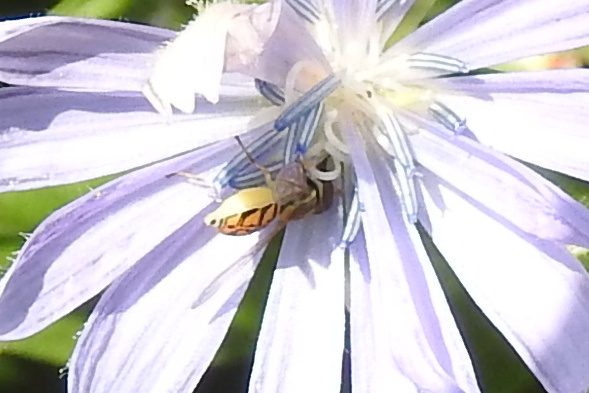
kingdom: Animalia
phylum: Arthropoda
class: Insecta
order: Diptera
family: Syrphidae
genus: Toxomerus
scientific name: Toxomerus marginatus
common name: Syrphid fly
